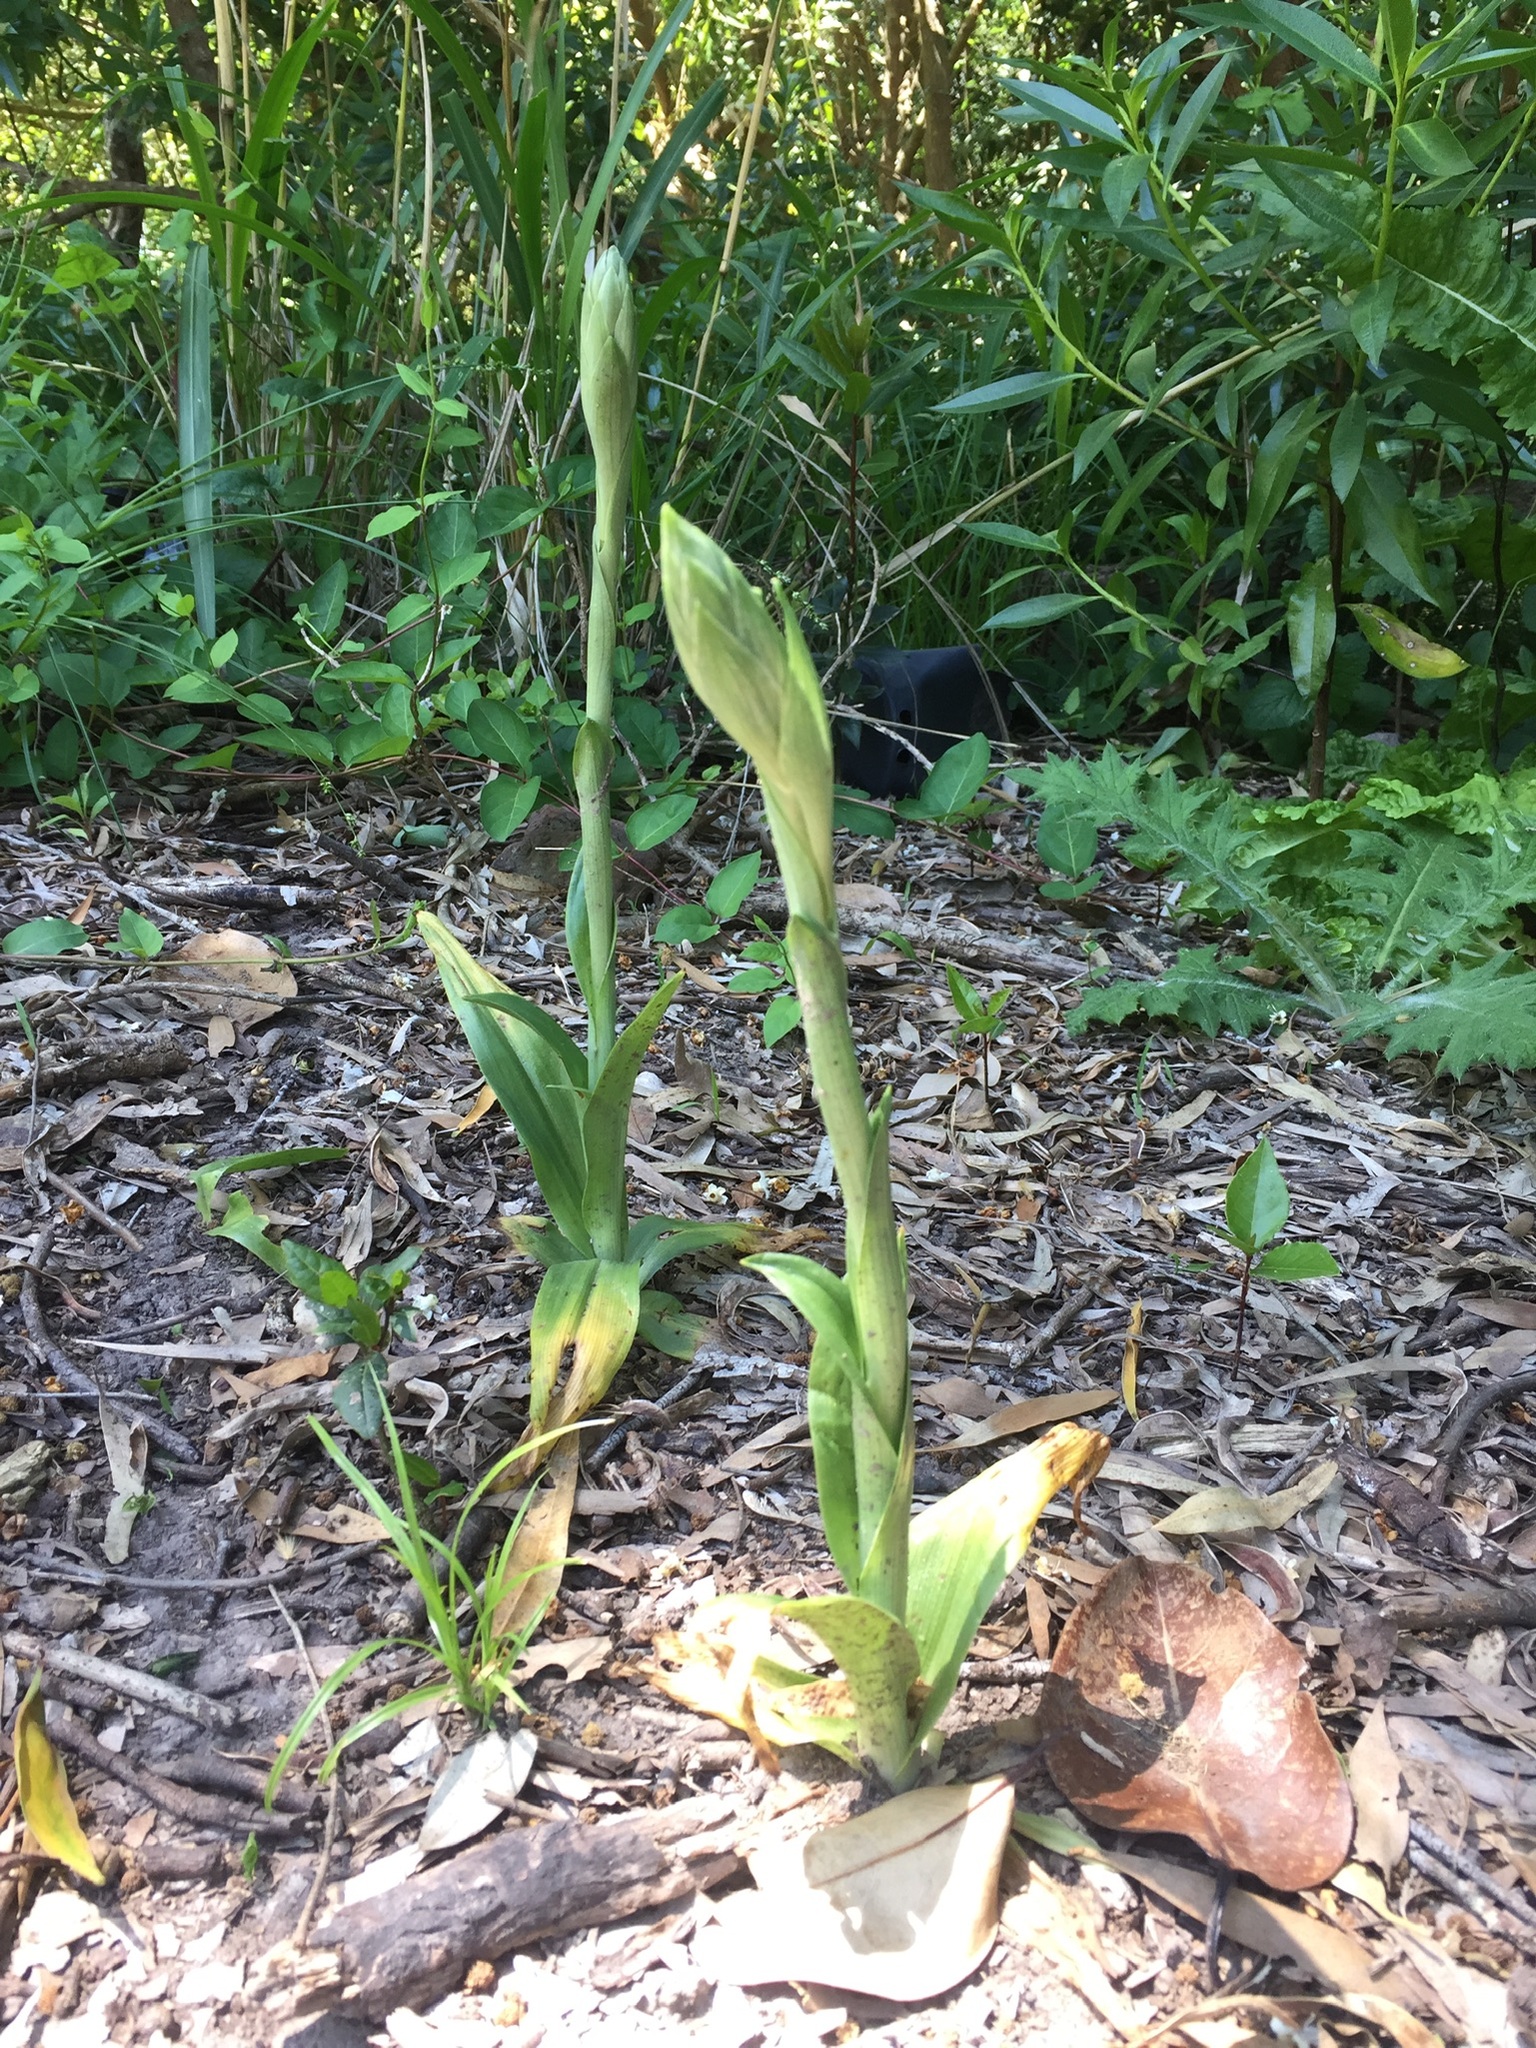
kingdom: Plantae
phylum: Tracheophyta
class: Liliopsida
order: Asparagales
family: Orchidaceae
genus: Chloraea
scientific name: Chloraea membranacea
